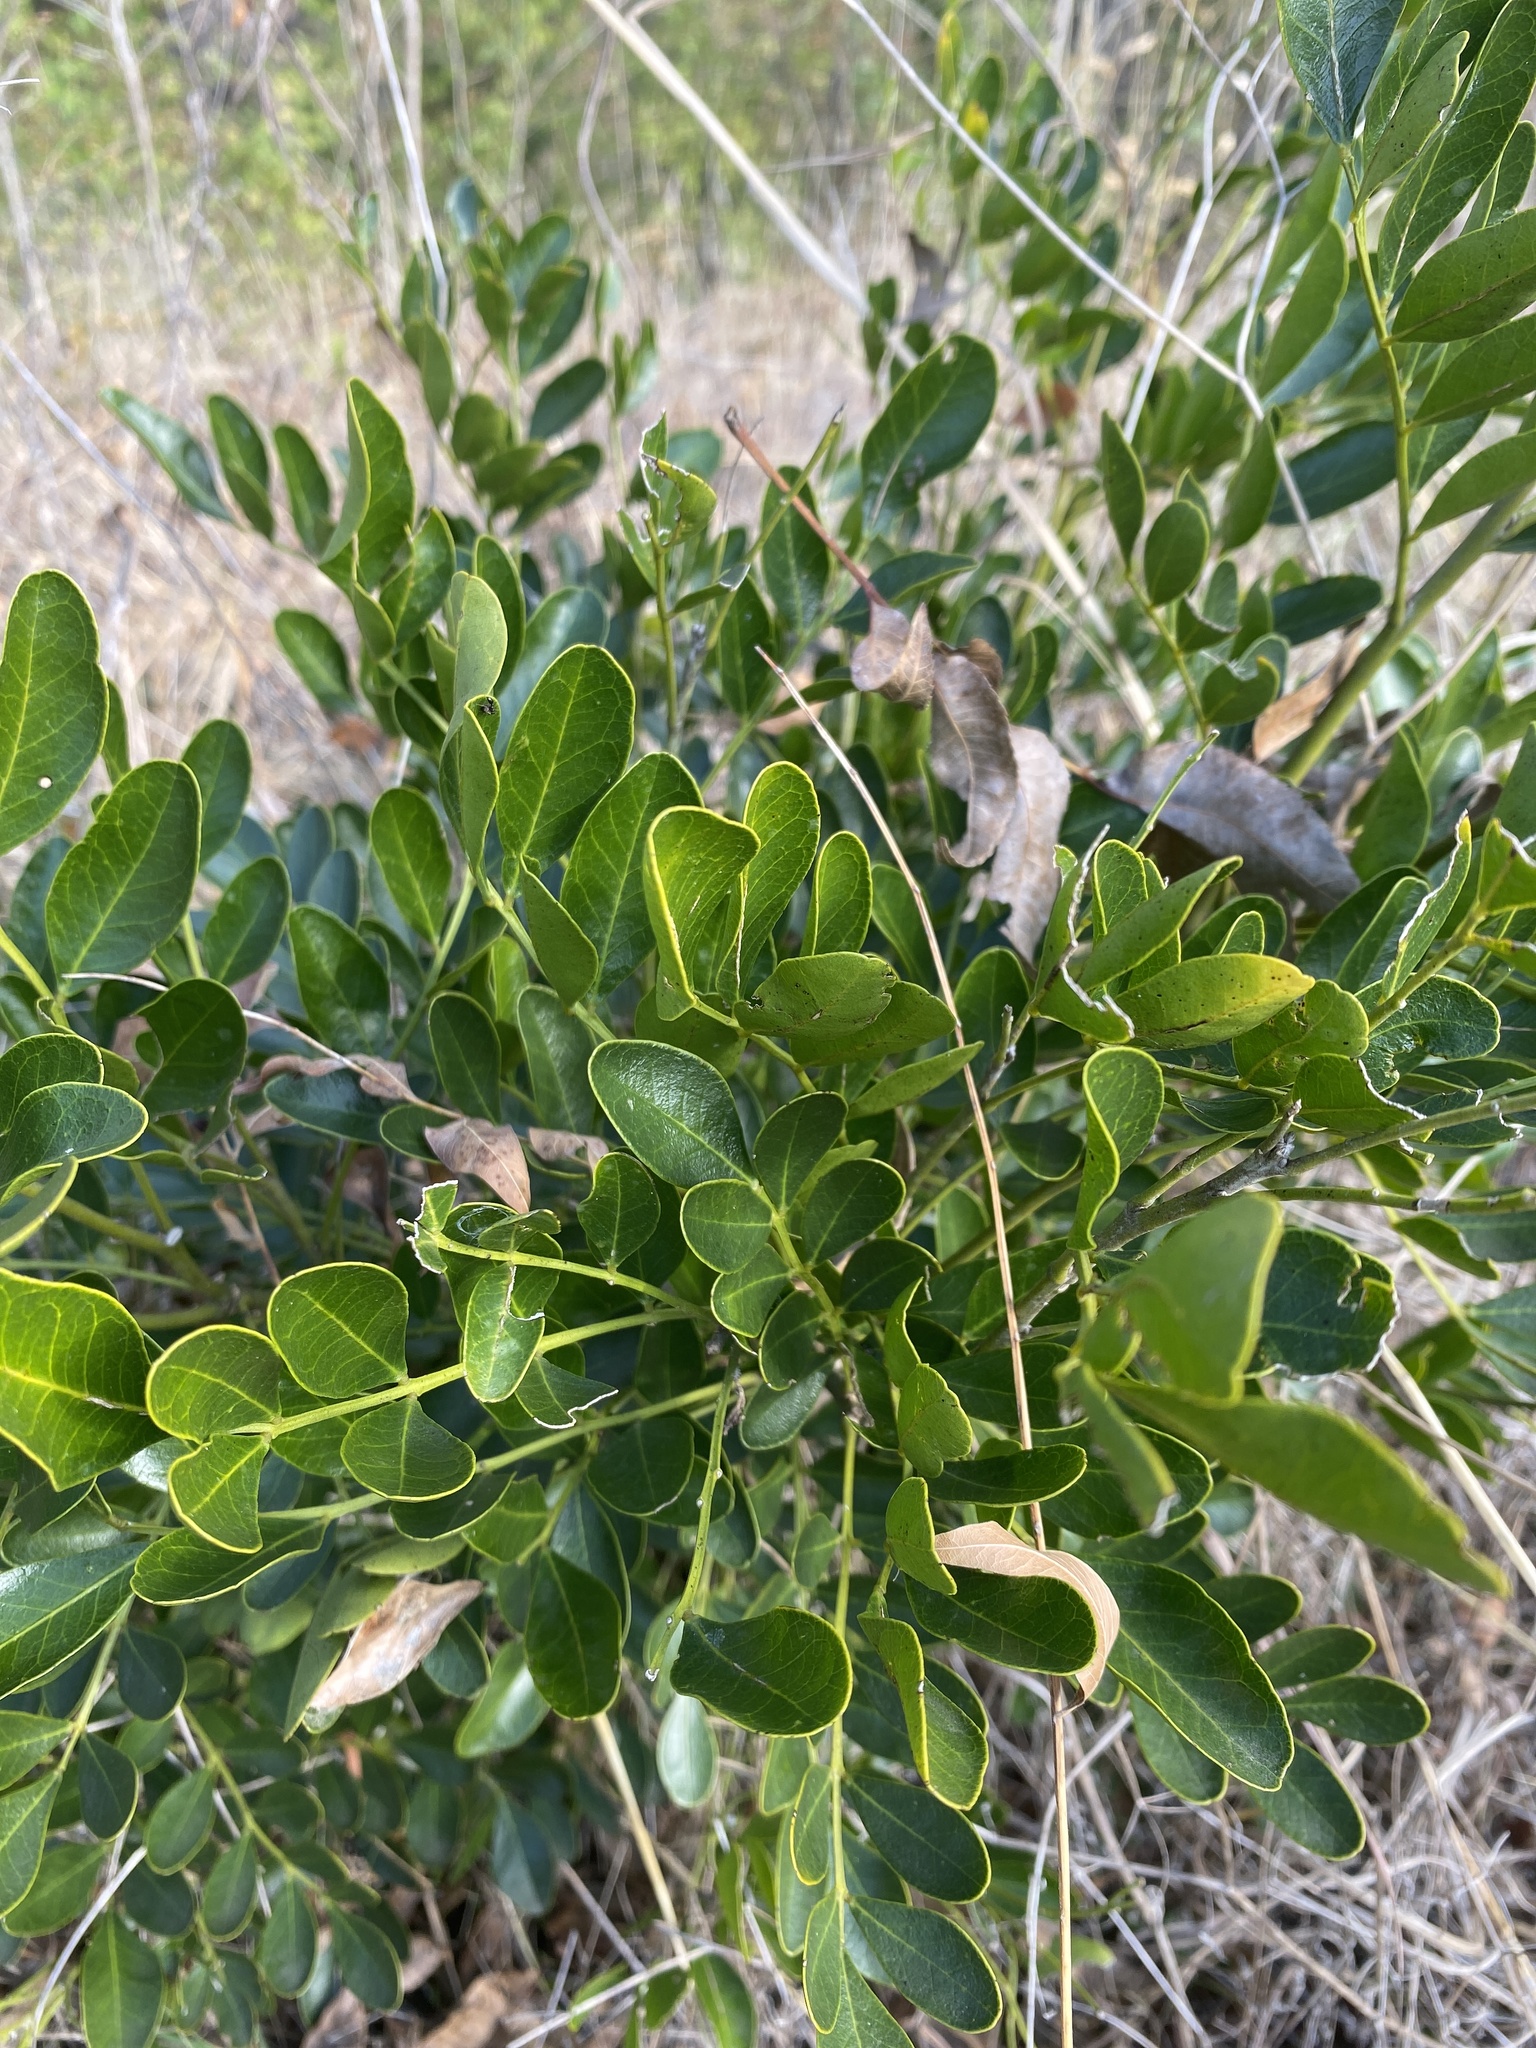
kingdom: Plantae
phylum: Tracheophyta
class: Magnoliopsida
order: Fabales
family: Fabaceae
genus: Dermatophyllum
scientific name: Dermatophyllum secundiflorum
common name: Texas-mountain-laurel
